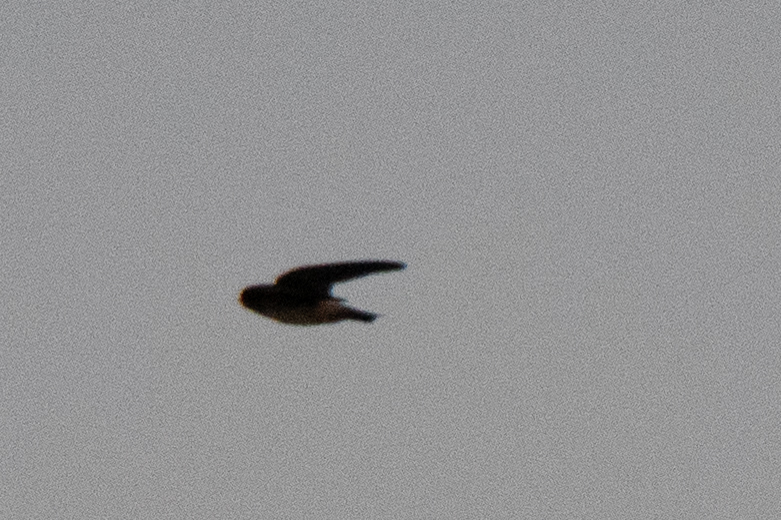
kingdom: Animalia
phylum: Chordata
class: Aves
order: Passeriformes
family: Hirundinidae
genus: Petrochelidon
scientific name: Petrochelidon pyrrhonota
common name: American cliff swallow
